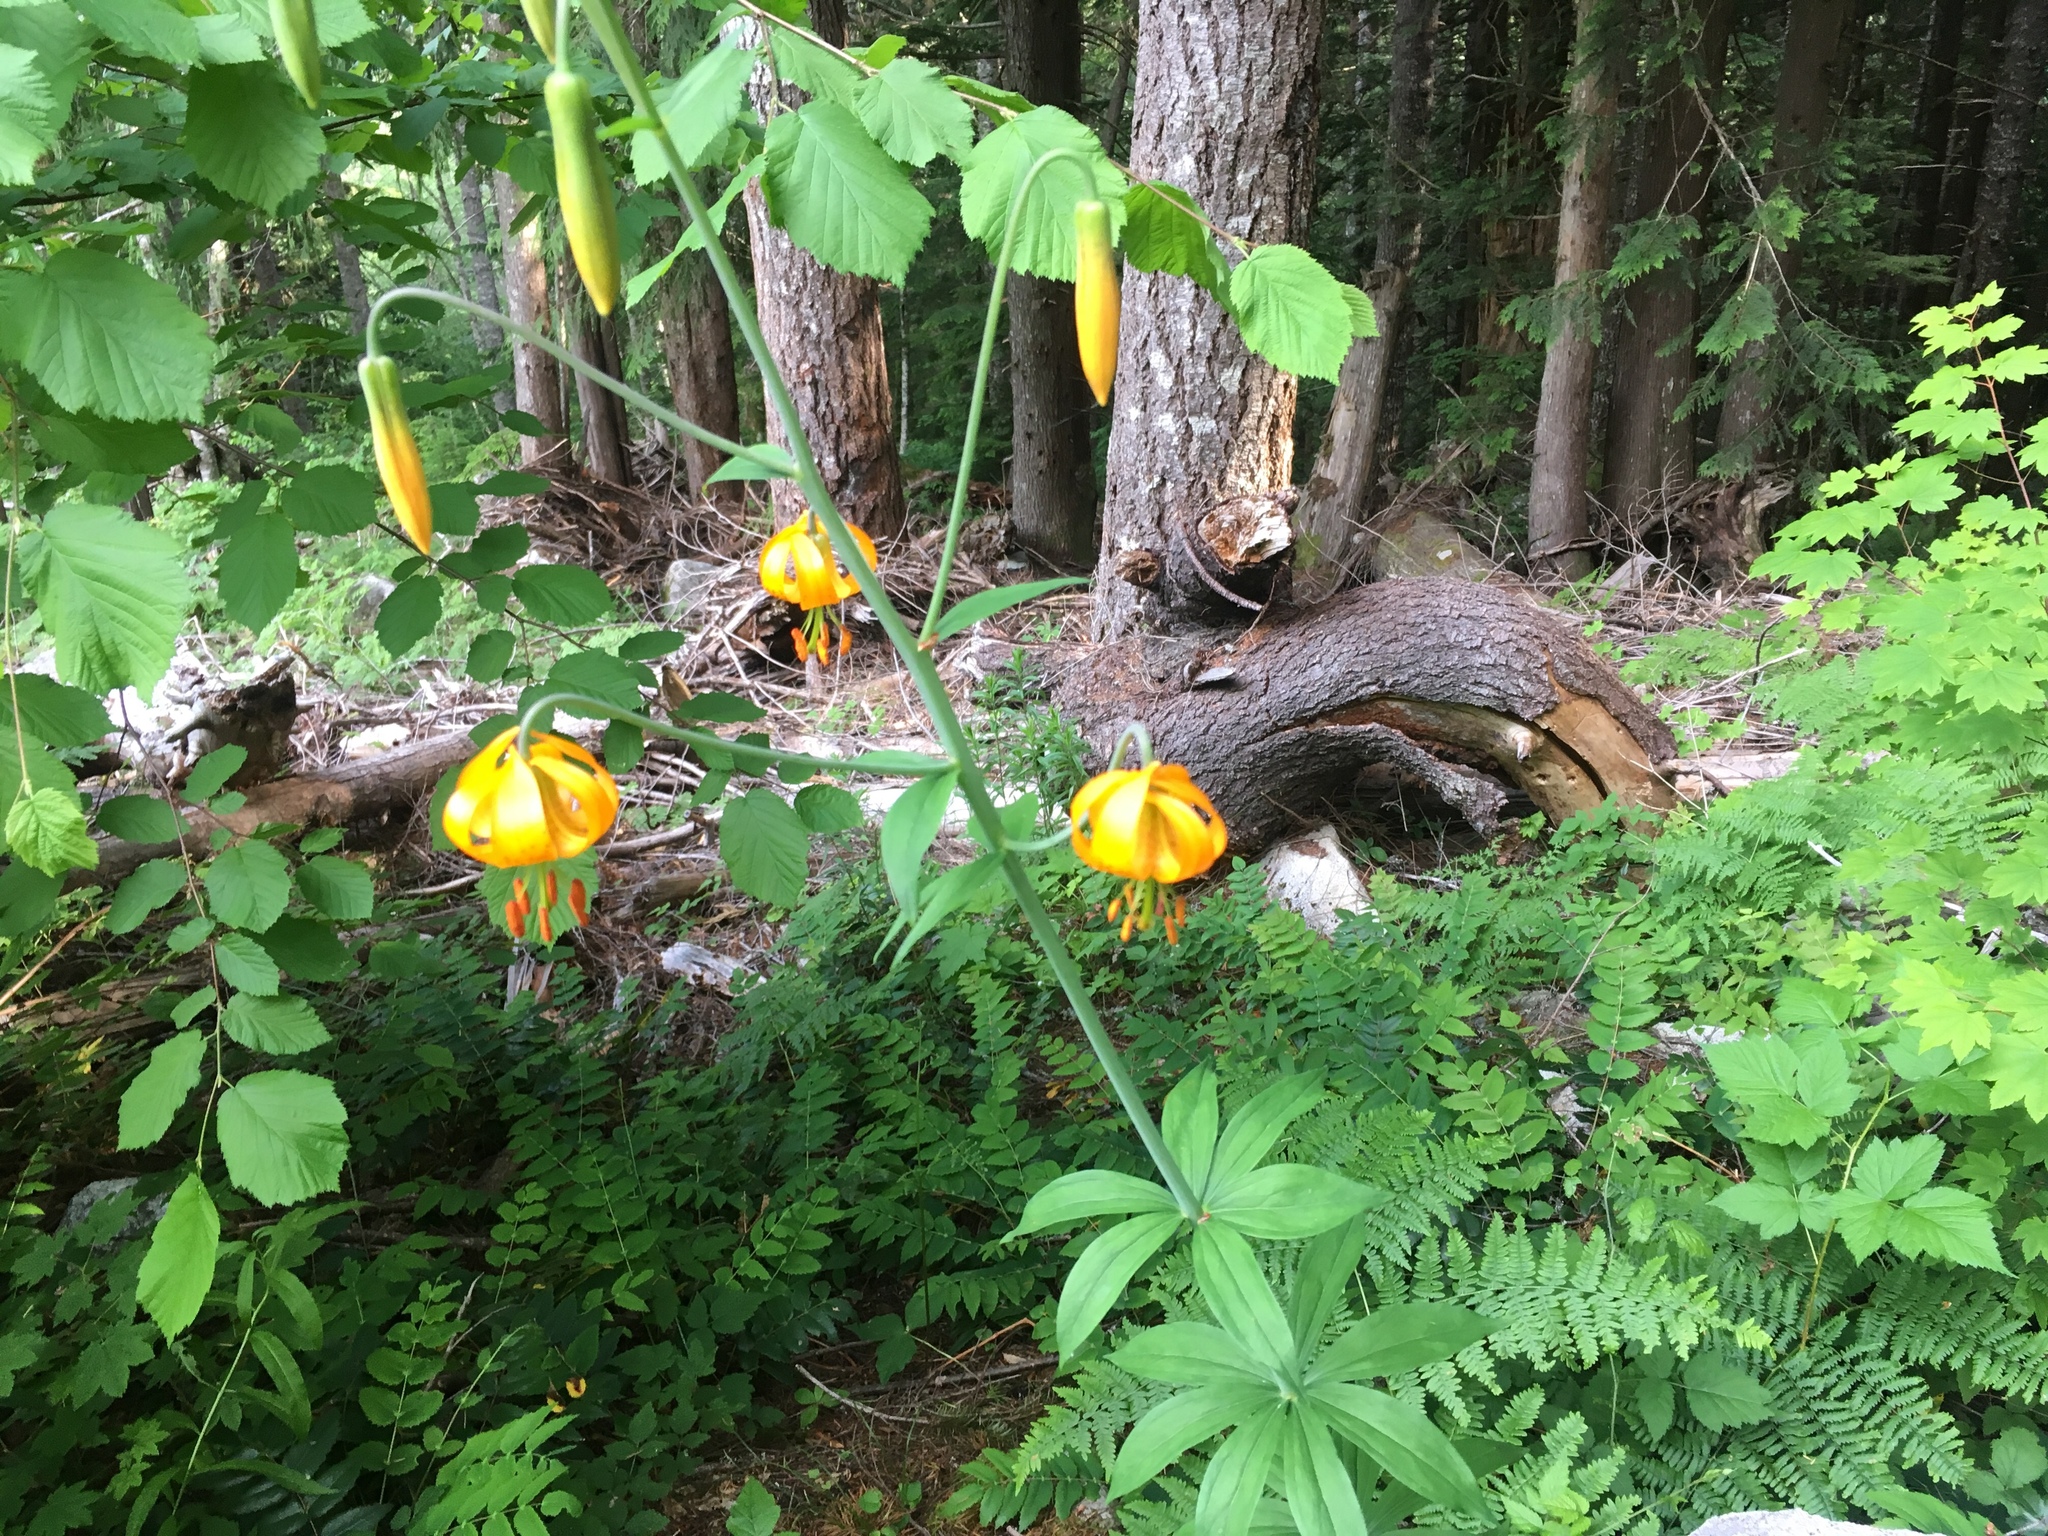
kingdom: Plantae
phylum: Tracheophyta
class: Liliopsida
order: Liliales
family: Liliaceae
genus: Lilium
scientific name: Lilium columbianum
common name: Columbia lily
